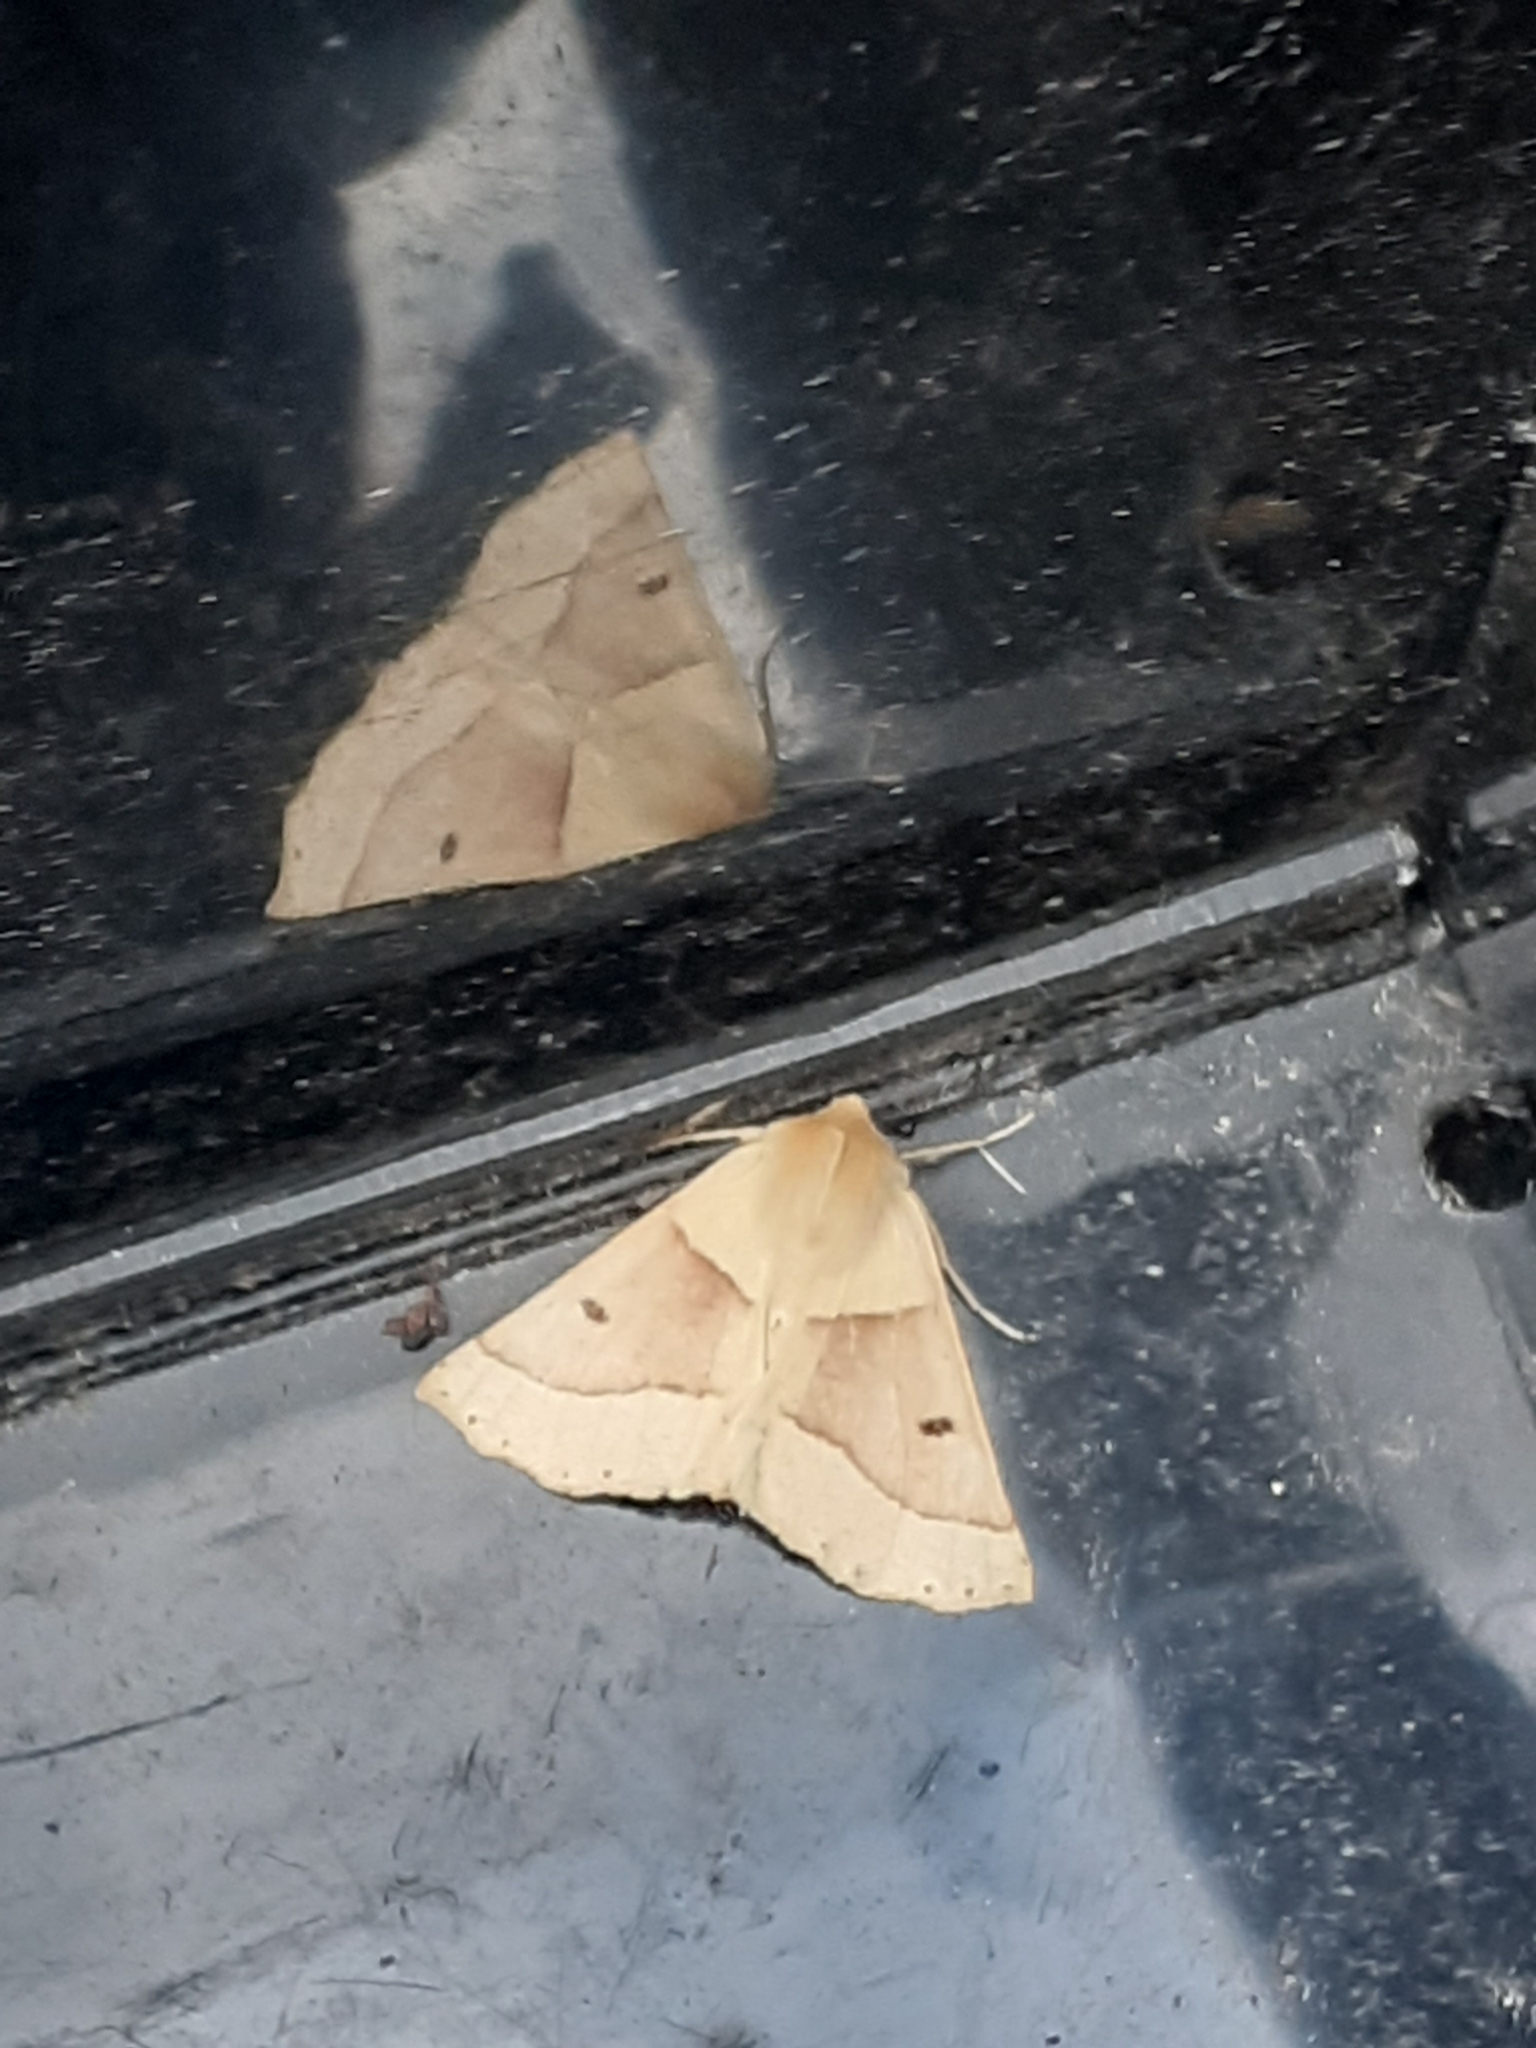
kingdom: Animalia
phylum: Arthropoda
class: Insecta
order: Lepidoptera
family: Geometridae
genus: Crocallis
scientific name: Crocallis elinguaria
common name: Scalloped oak
